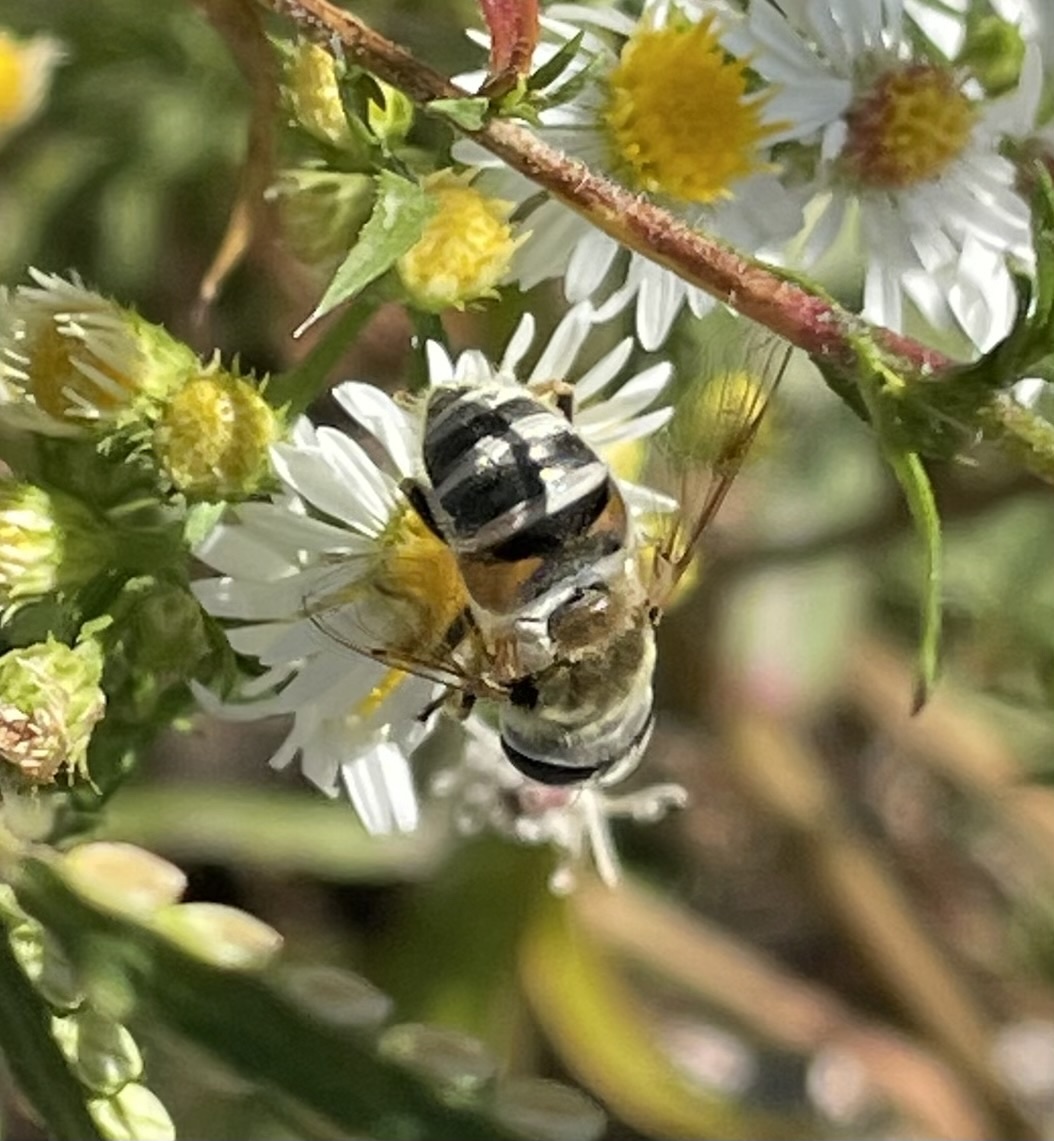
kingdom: Animalia
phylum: Arthropoda
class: Insecta
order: Diptera
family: Syrphidae
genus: Eristalis
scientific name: Eristalis stipator
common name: Yellow-shouldered drone fly
